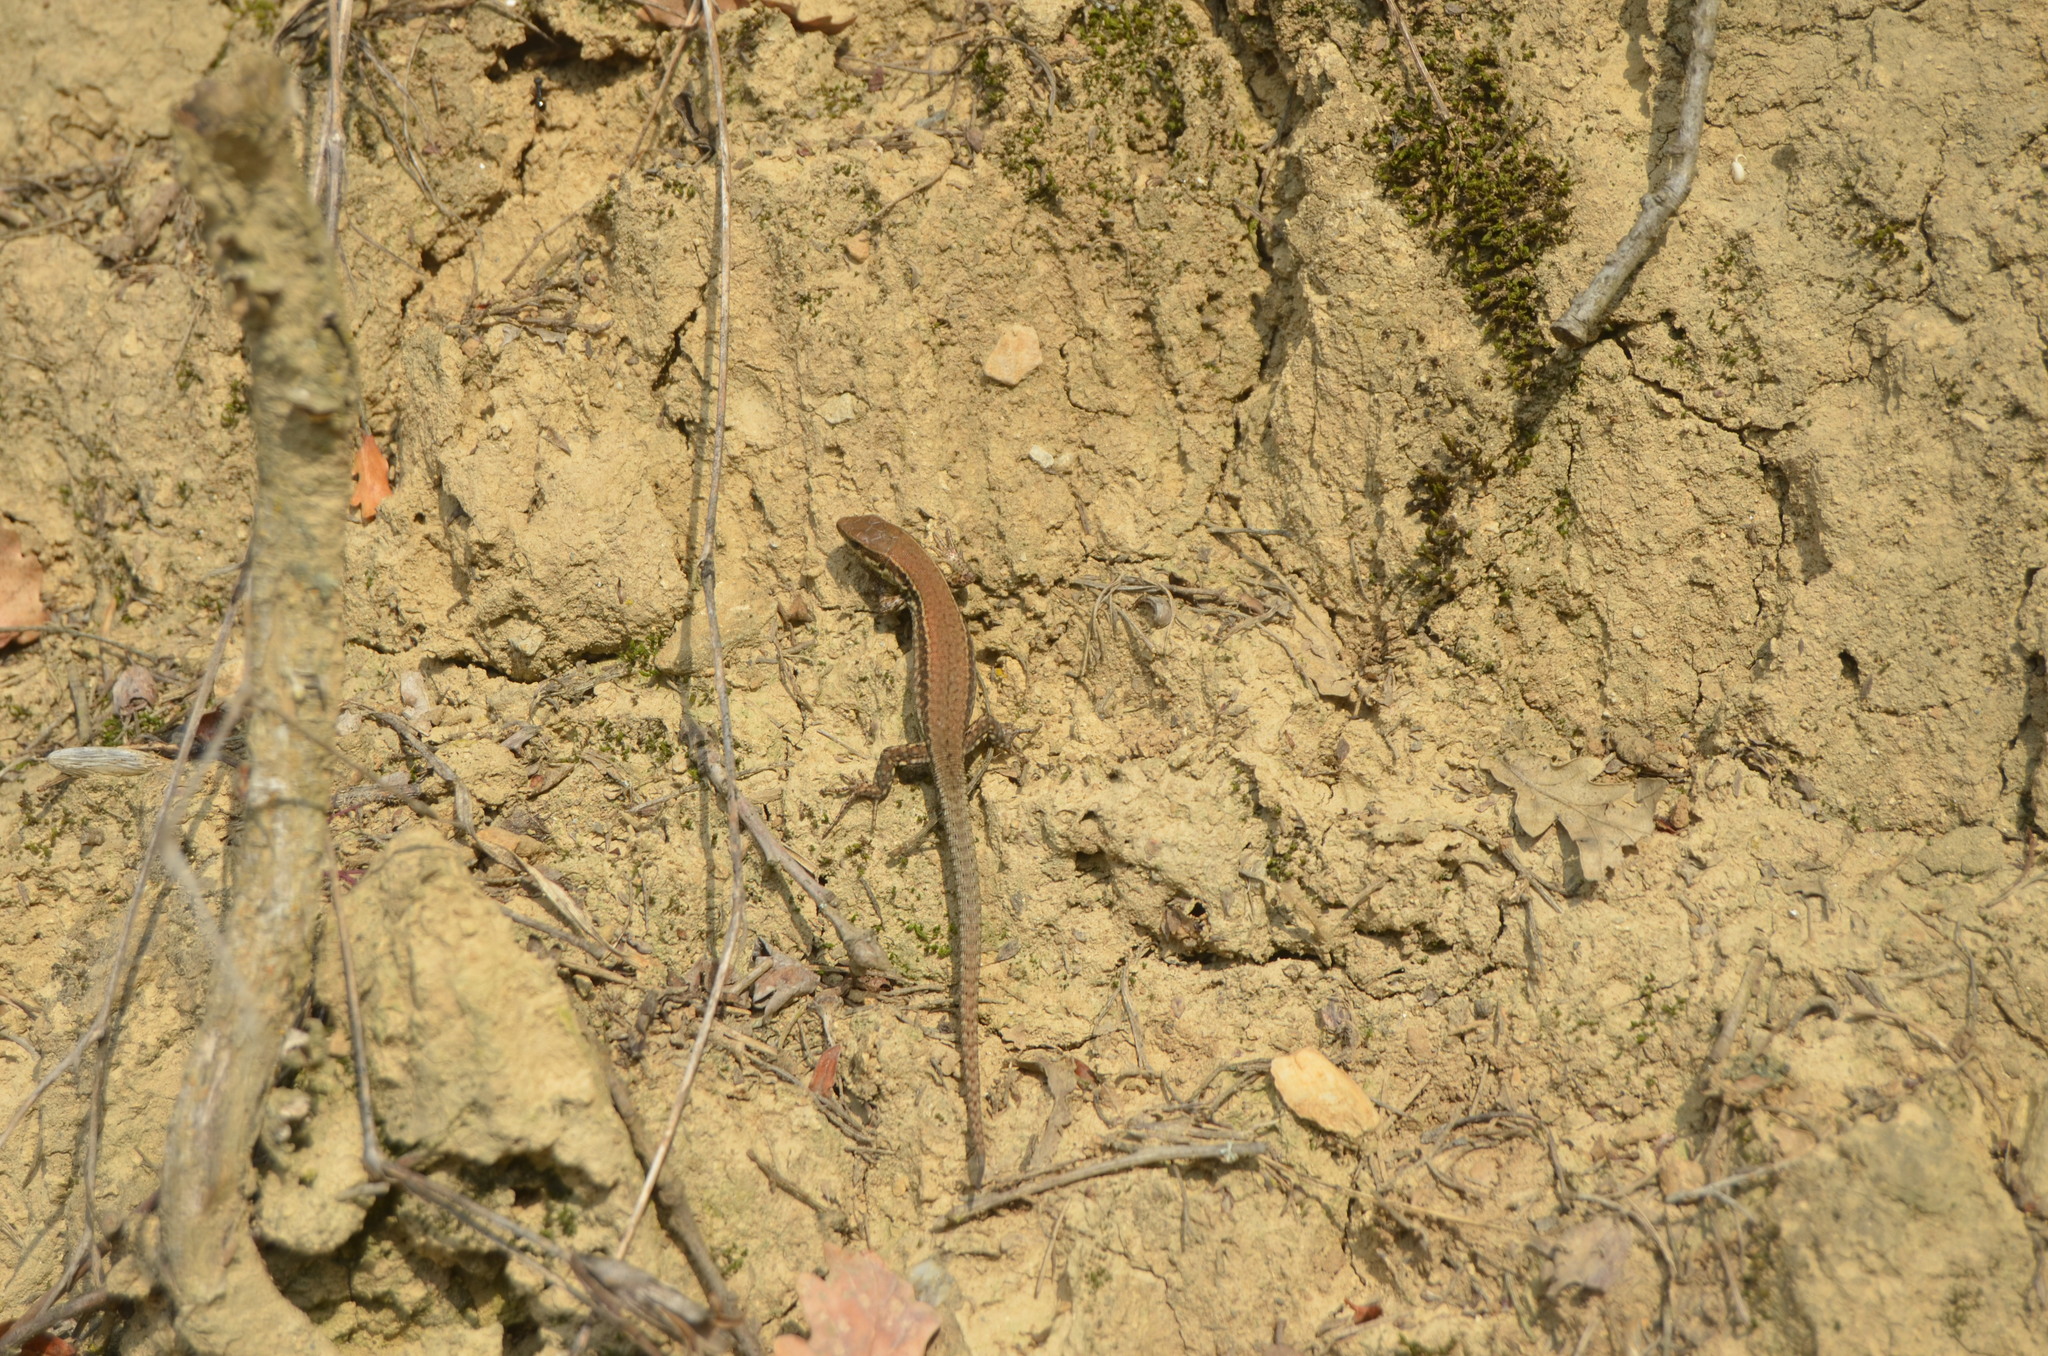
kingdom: Animalia
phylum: Chordata
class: Squamata
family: Lacertidae
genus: Podarcis
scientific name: Podarcis muralis
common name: Common wall lizard
